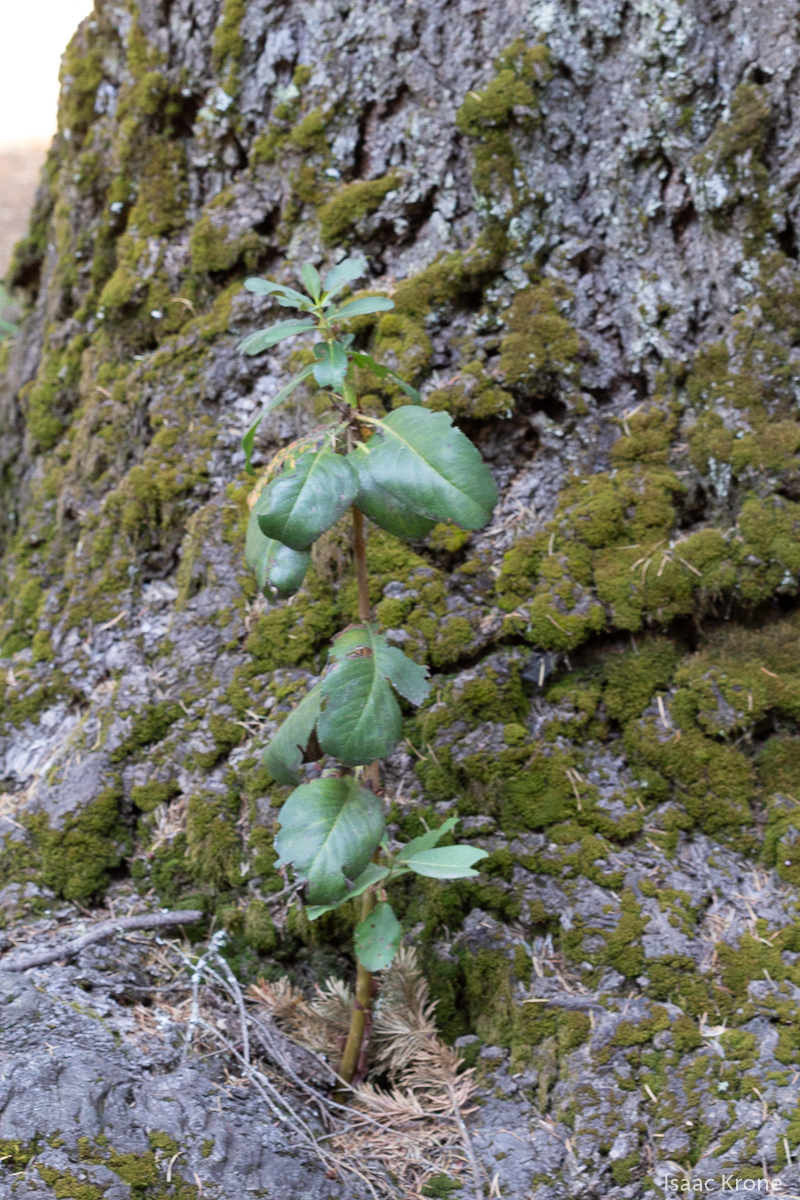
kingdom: Plantae
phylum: Tracheophyta
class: Magnoliopsida
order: Ericales
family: Ericaceae
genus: Arbutus
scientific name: Arbutus menziesii
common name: Pacific madrone
